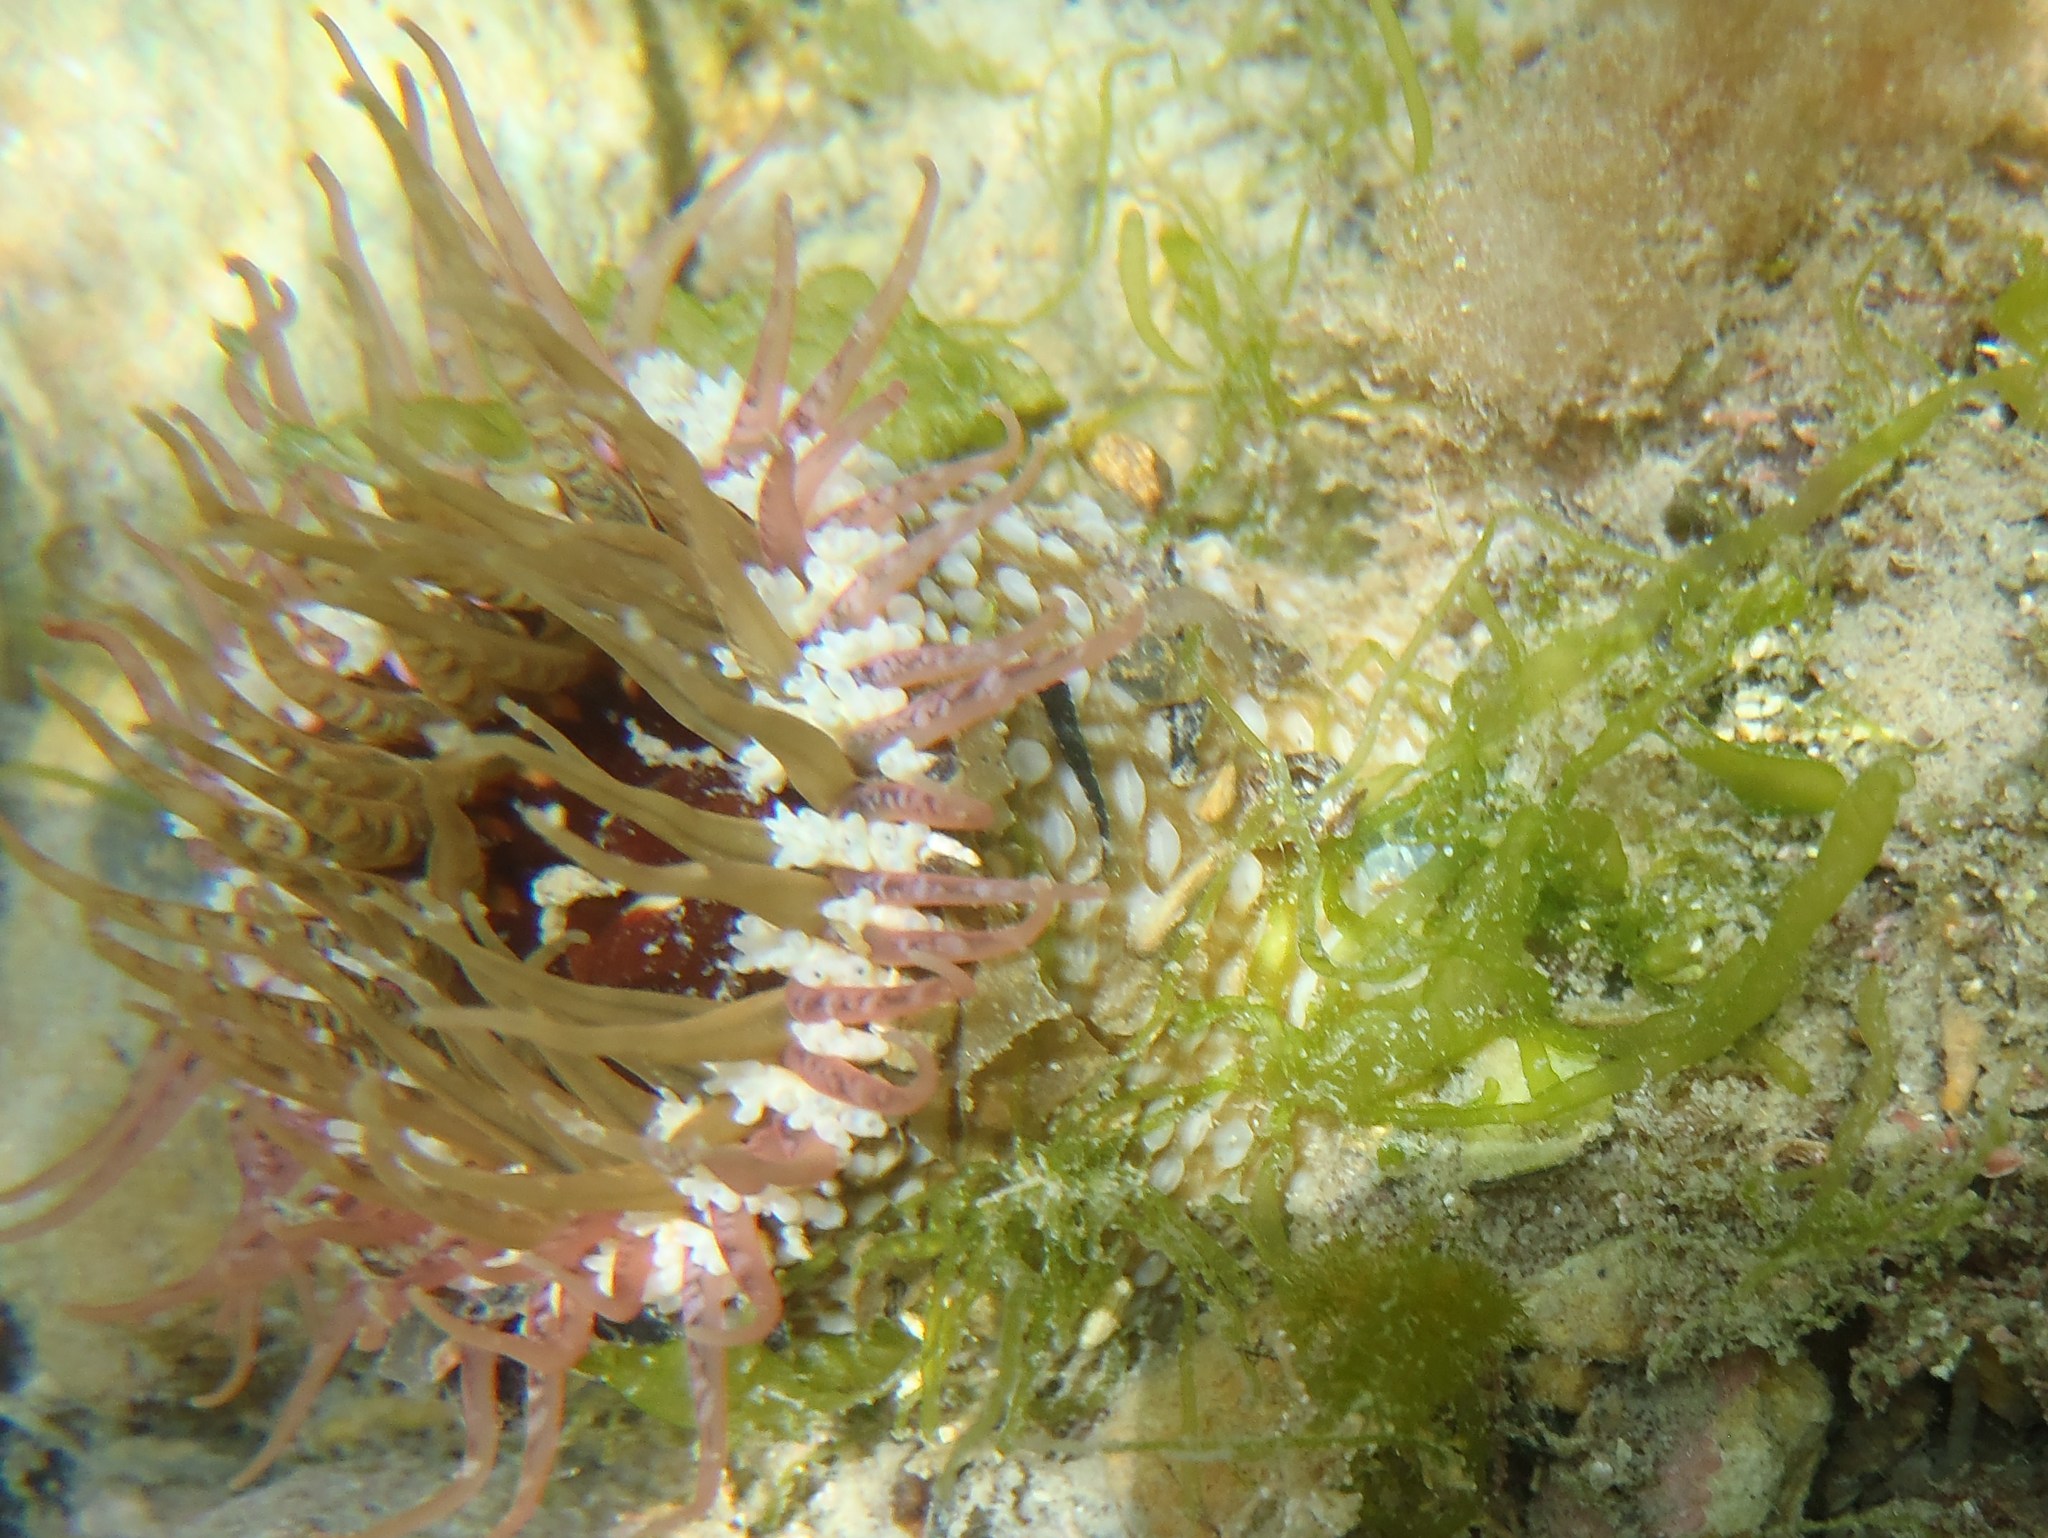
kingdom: Animalia
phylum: Cnidaria
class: Anthozoa
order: Actiniaria
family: Actiniidae
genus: Oulactis
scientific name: Oulactis muscosa
